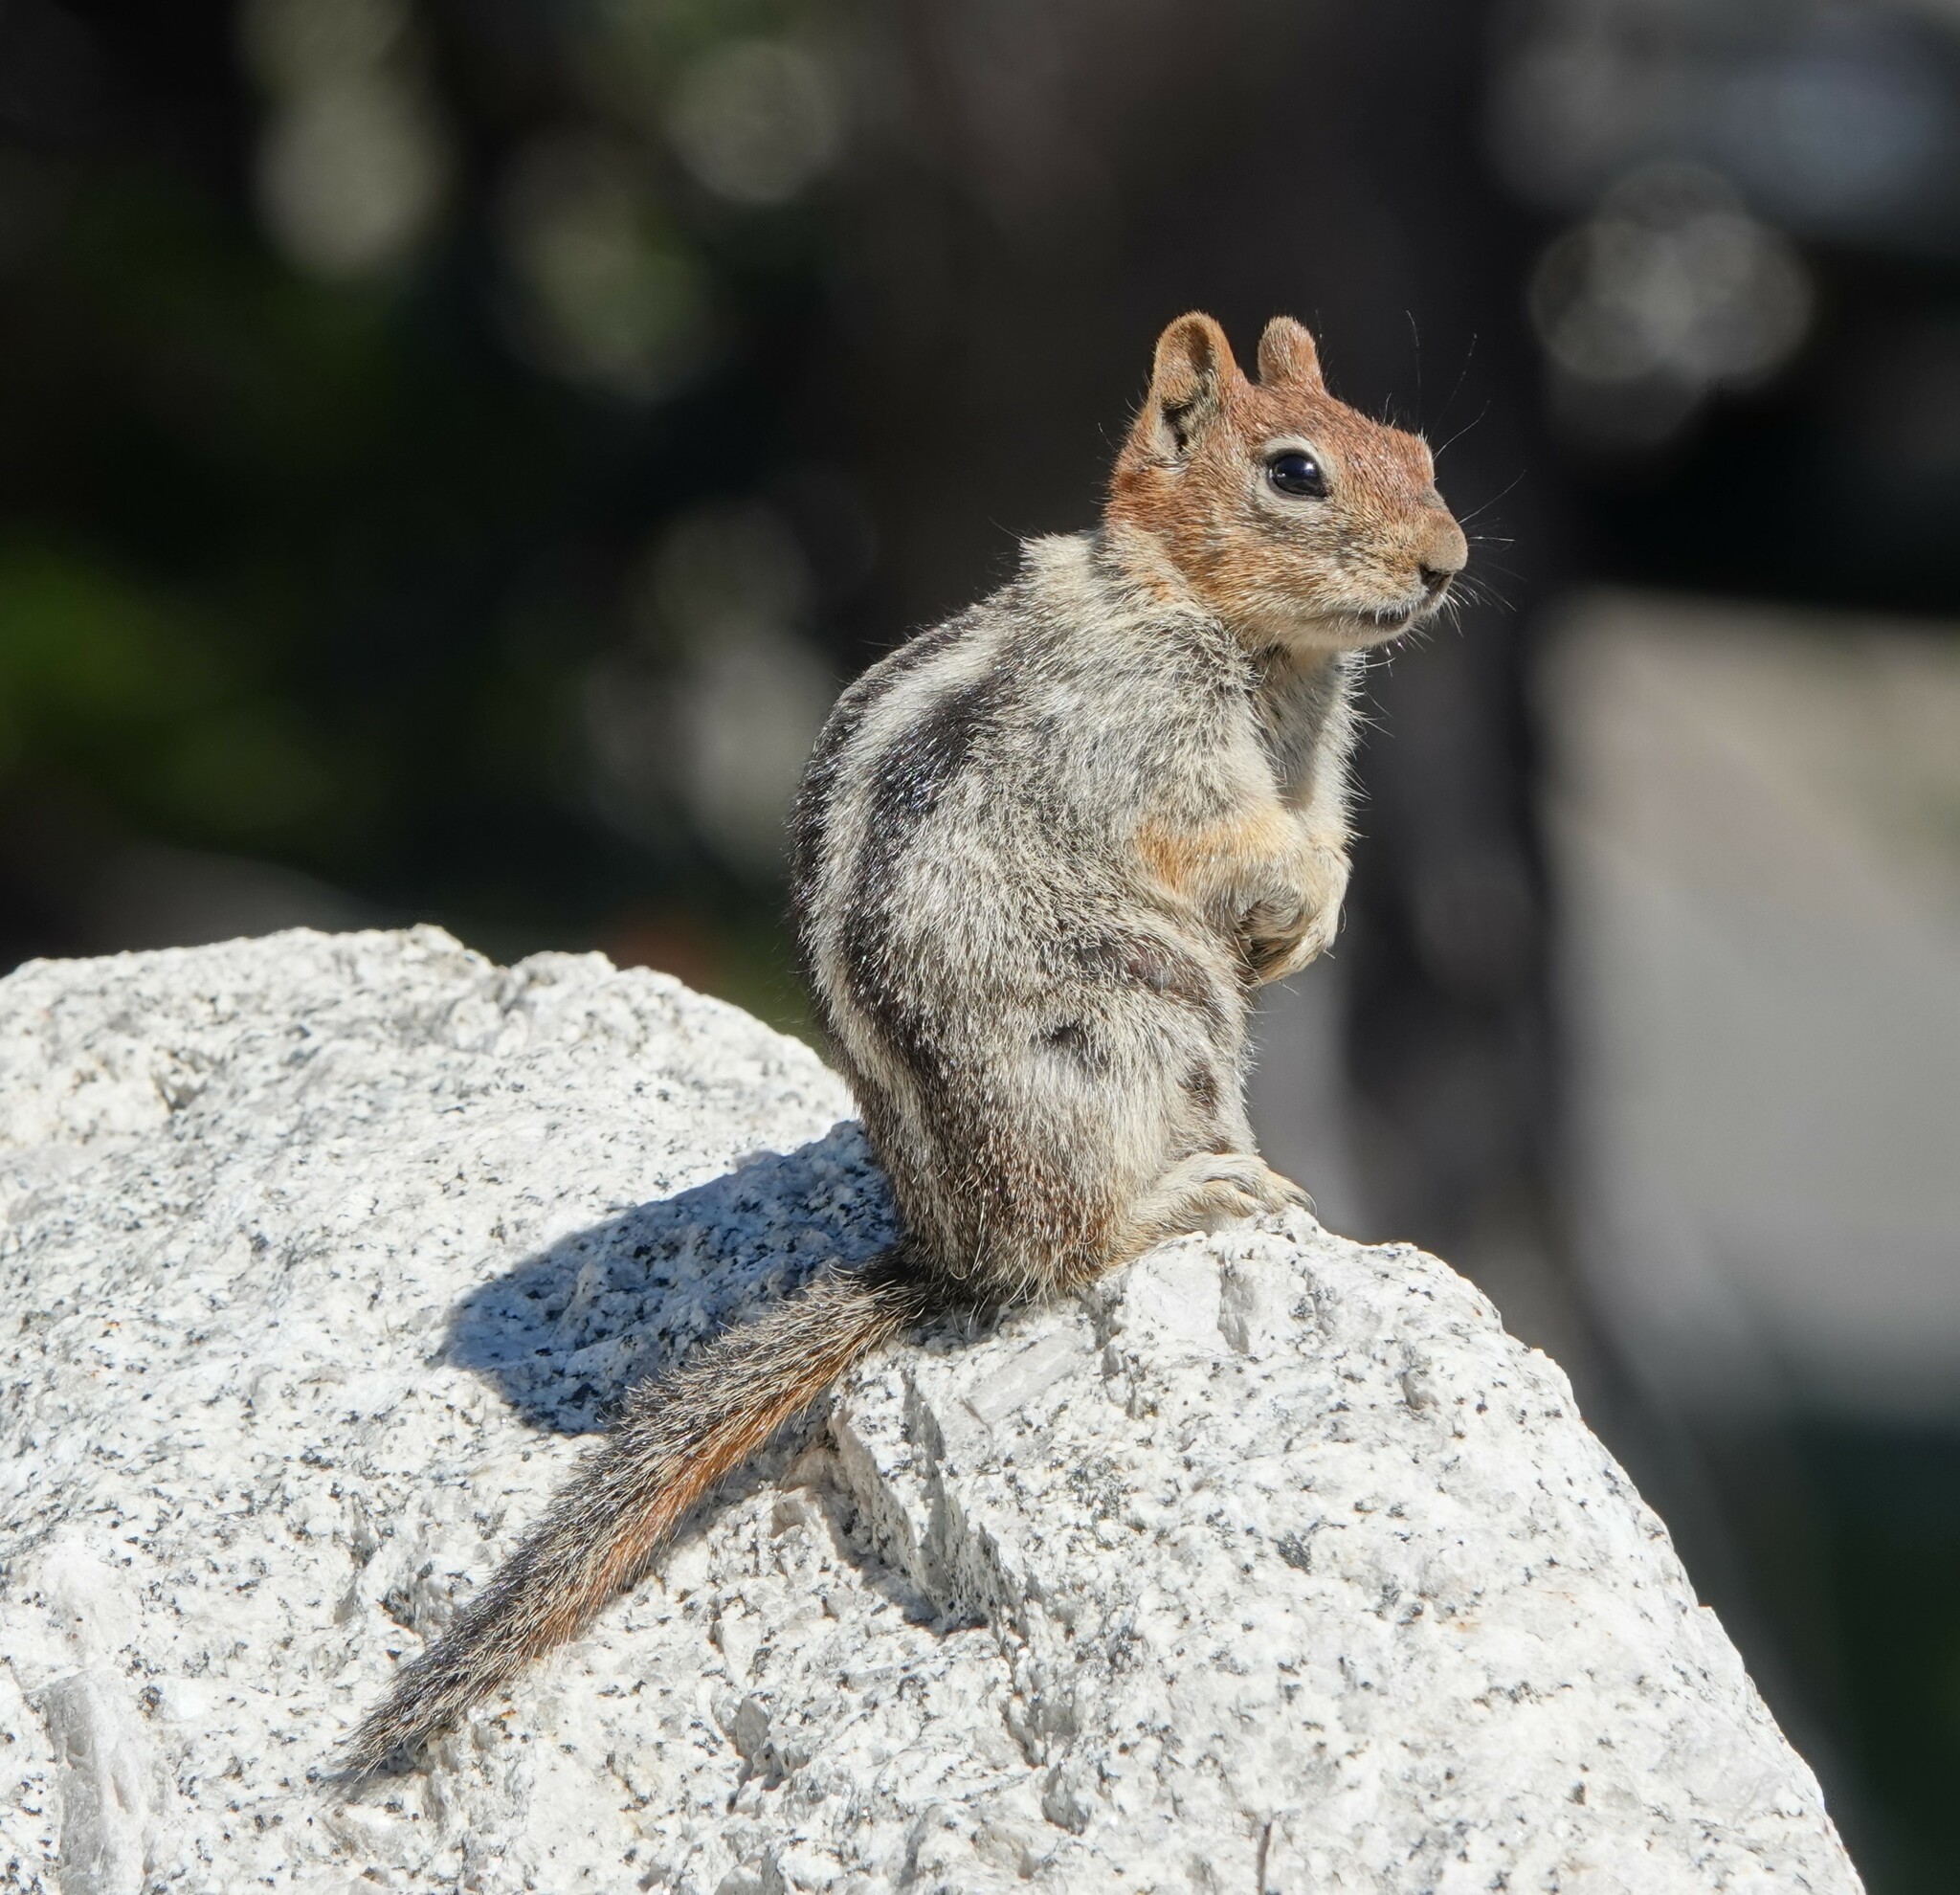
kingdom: Animalia
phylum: Chordata
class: Mammalia
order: Rodentia
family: Sciuridae
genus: Callospermophilus
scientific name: Callospermophilus lateralis
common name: Golden-mantled ground squirrel
